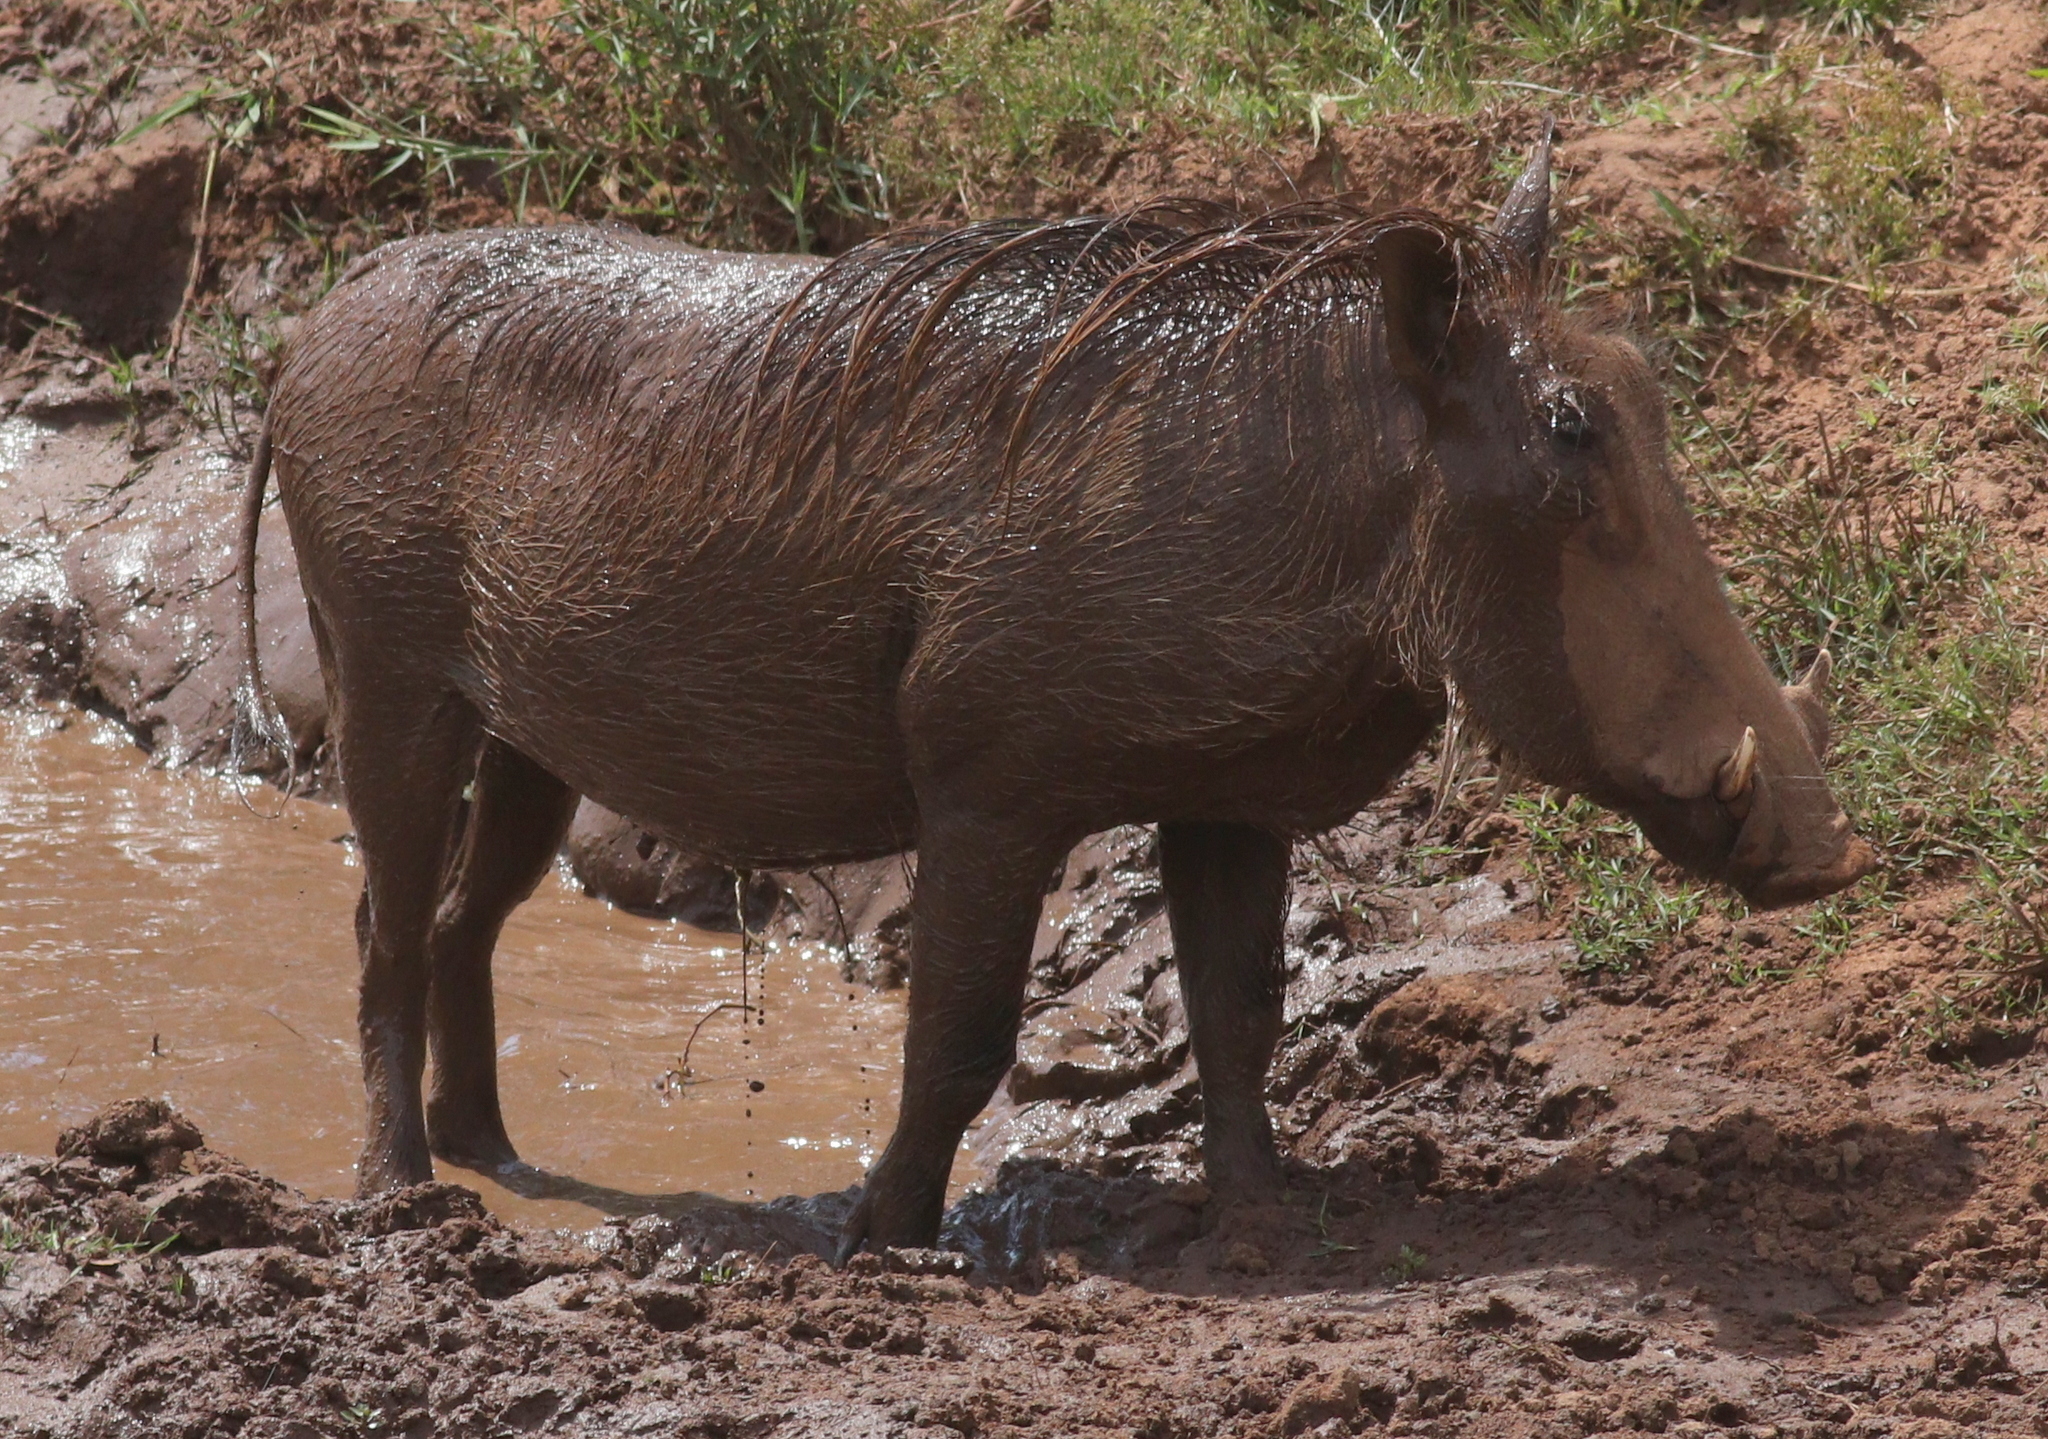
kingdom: Animalia
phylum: Chordata
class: Mammalia
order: Artiodactyla
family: Suidae
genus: Phacochoerus
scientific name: Phacochoerus africanus
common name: Common warthog
